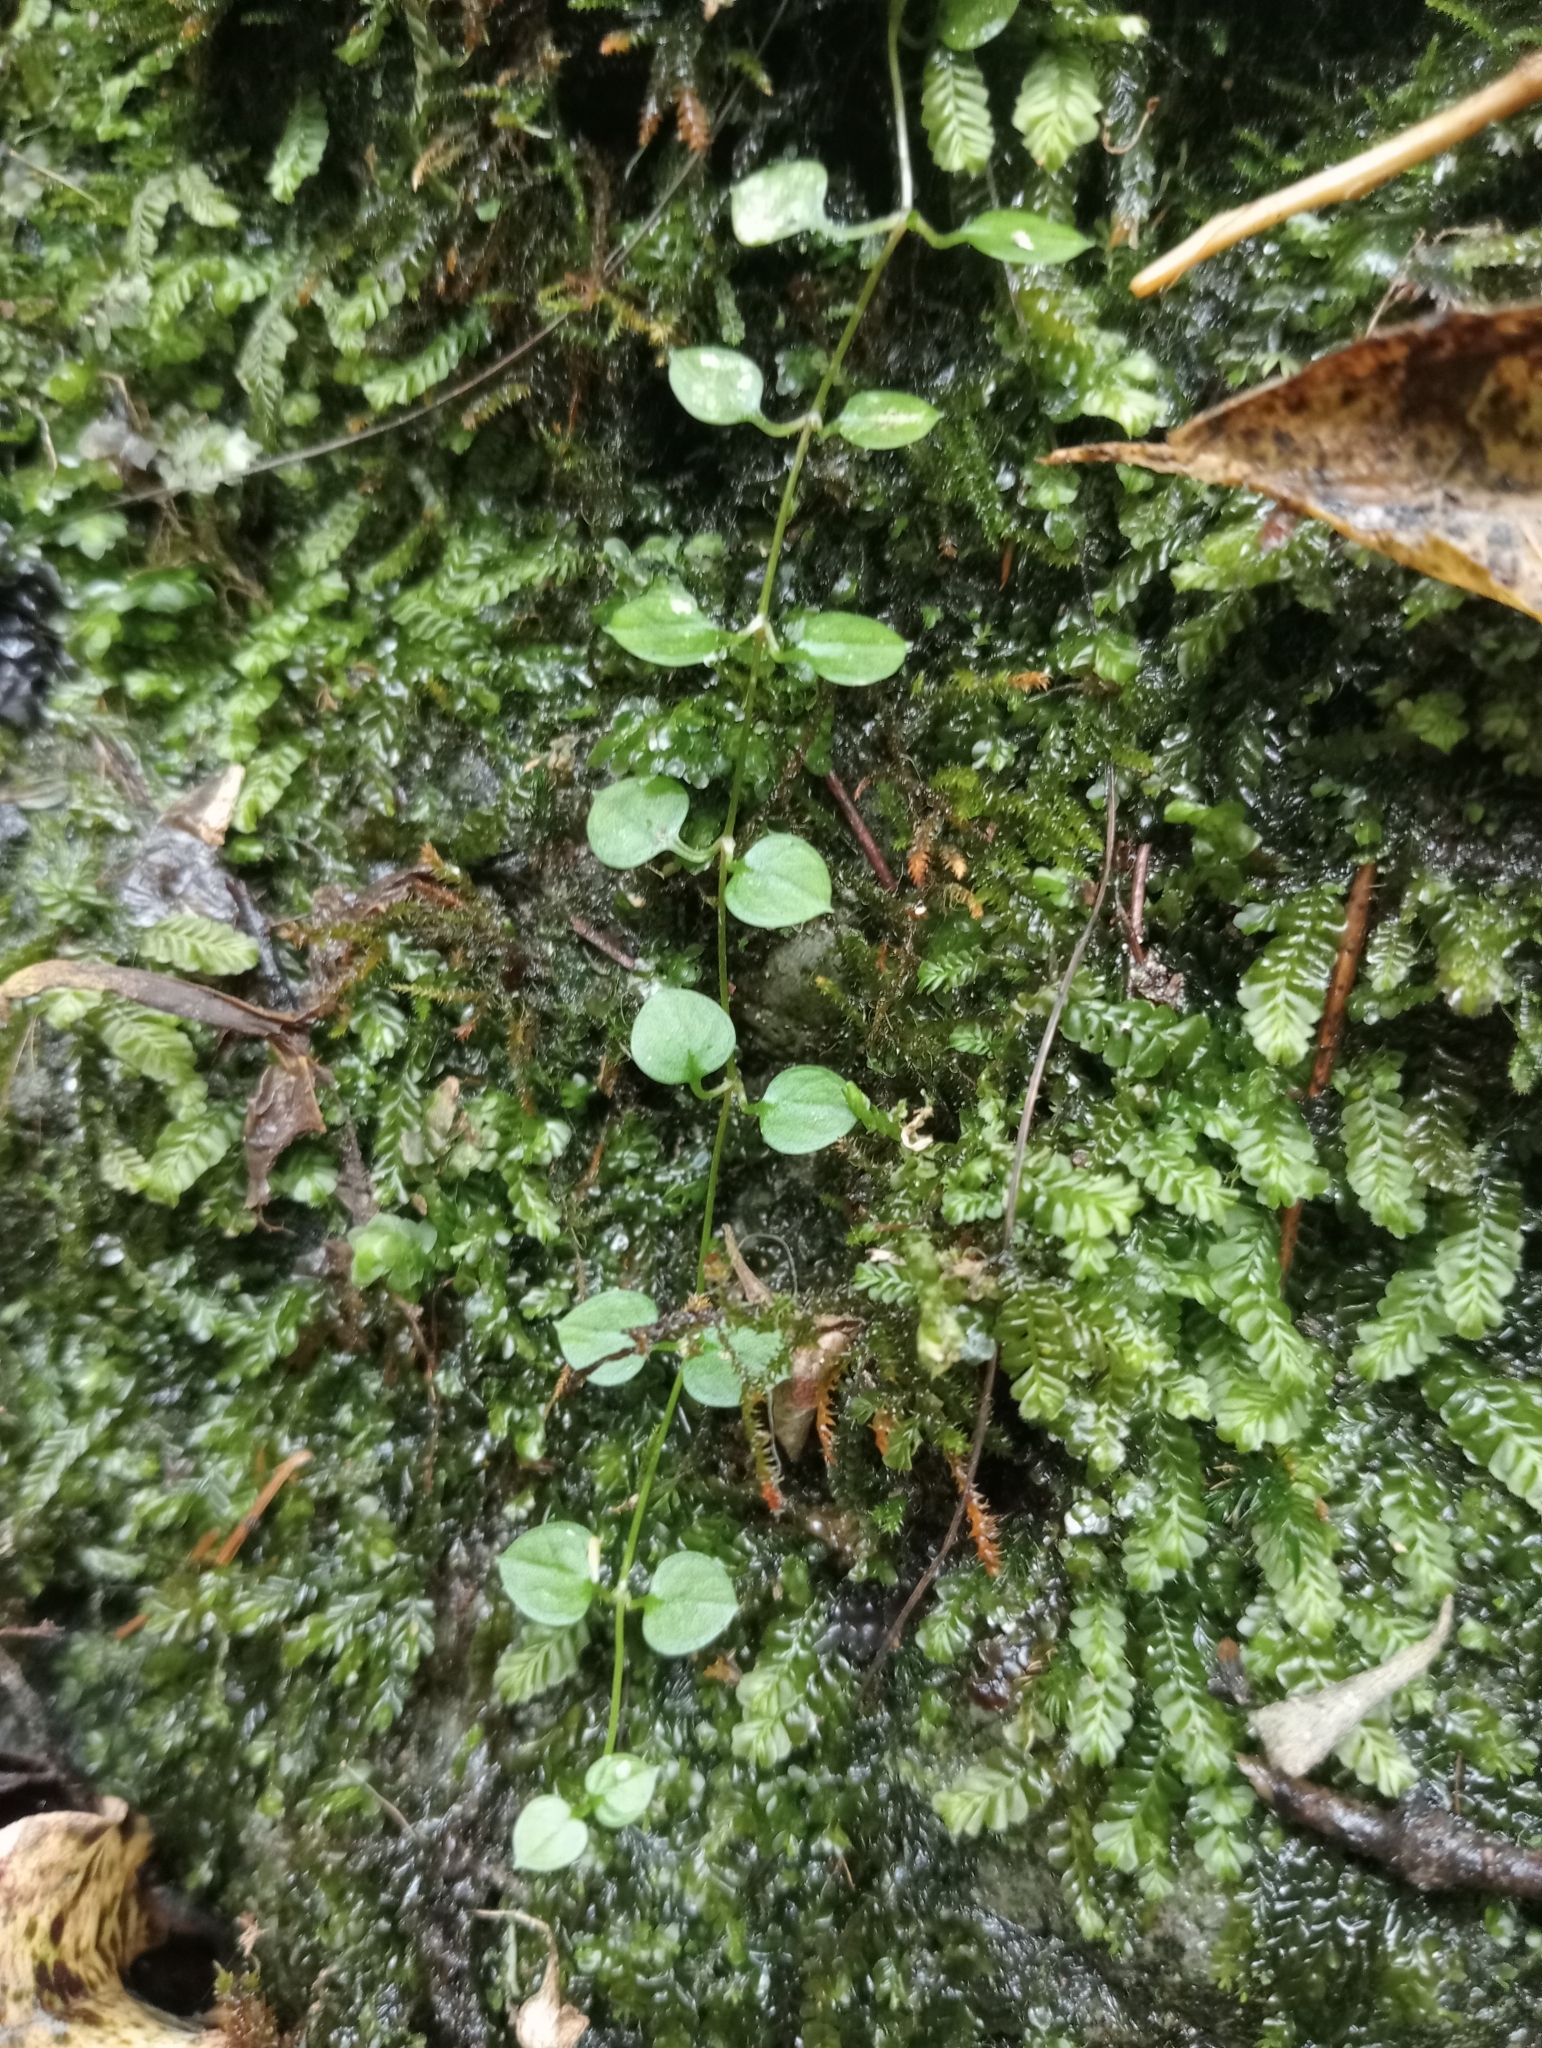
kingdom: Plantae
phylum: Tracheophyta
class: Magnoliopsida
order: Caryophyllales
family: Caryophyllaceae
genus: Stellaria
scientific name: Stellaria parviflora
